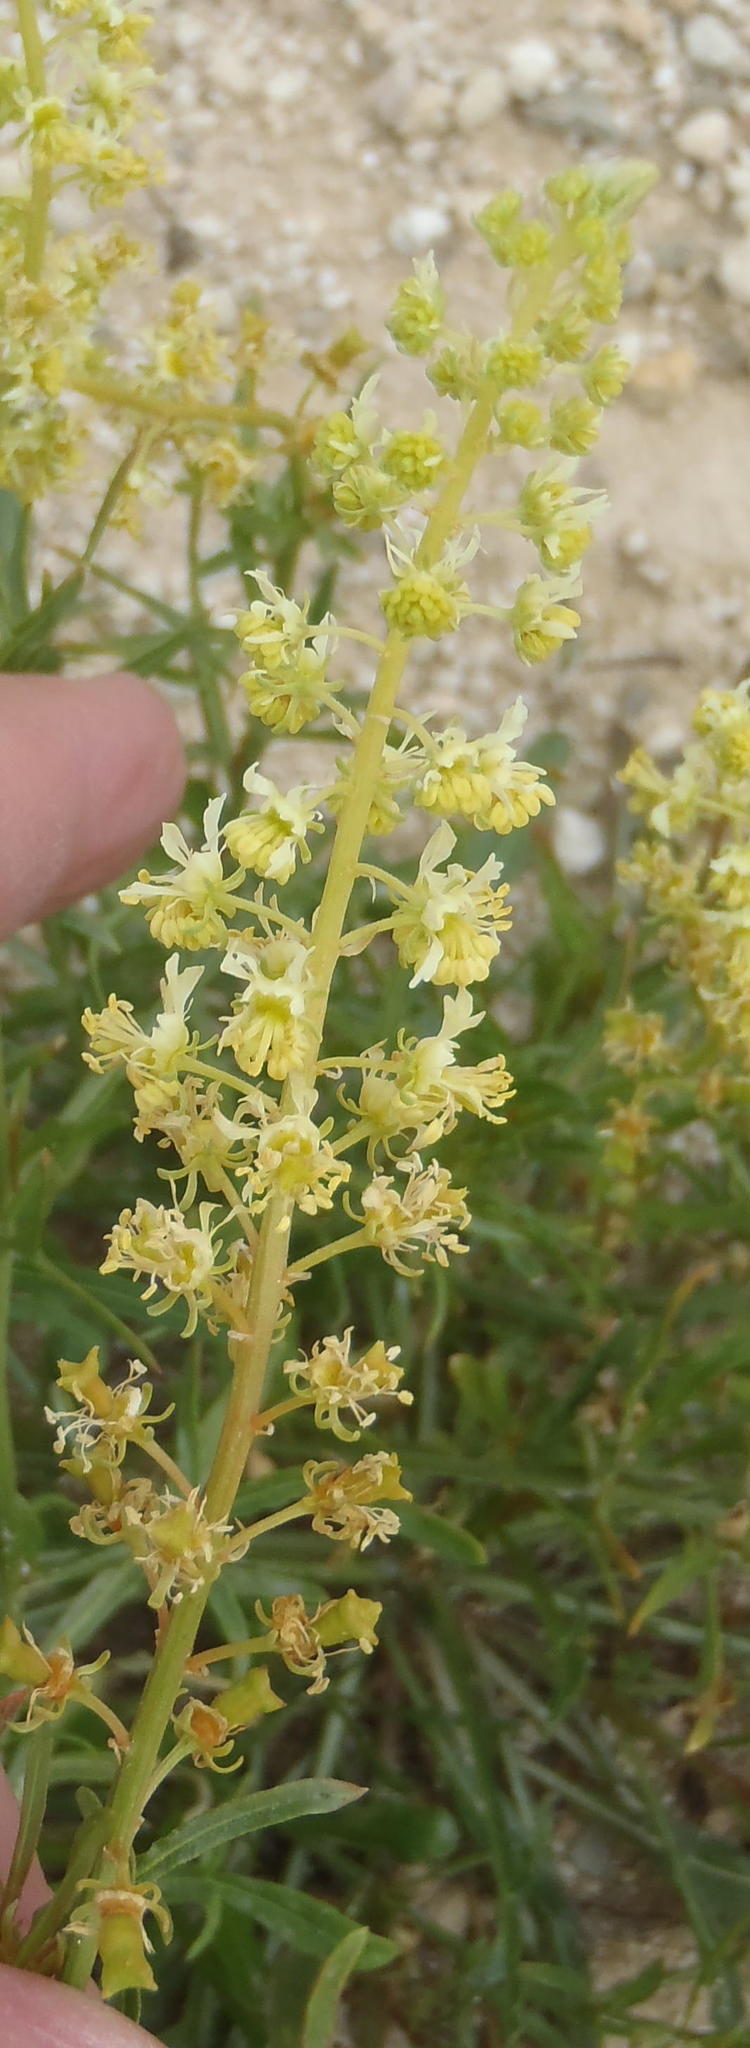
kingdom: Plantae
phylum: Tracheophyta
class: Magnoliopsida
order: Brassicales
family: Resedaceae
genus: Reseda
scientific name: Reseda lutea
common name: Wild mignonette
